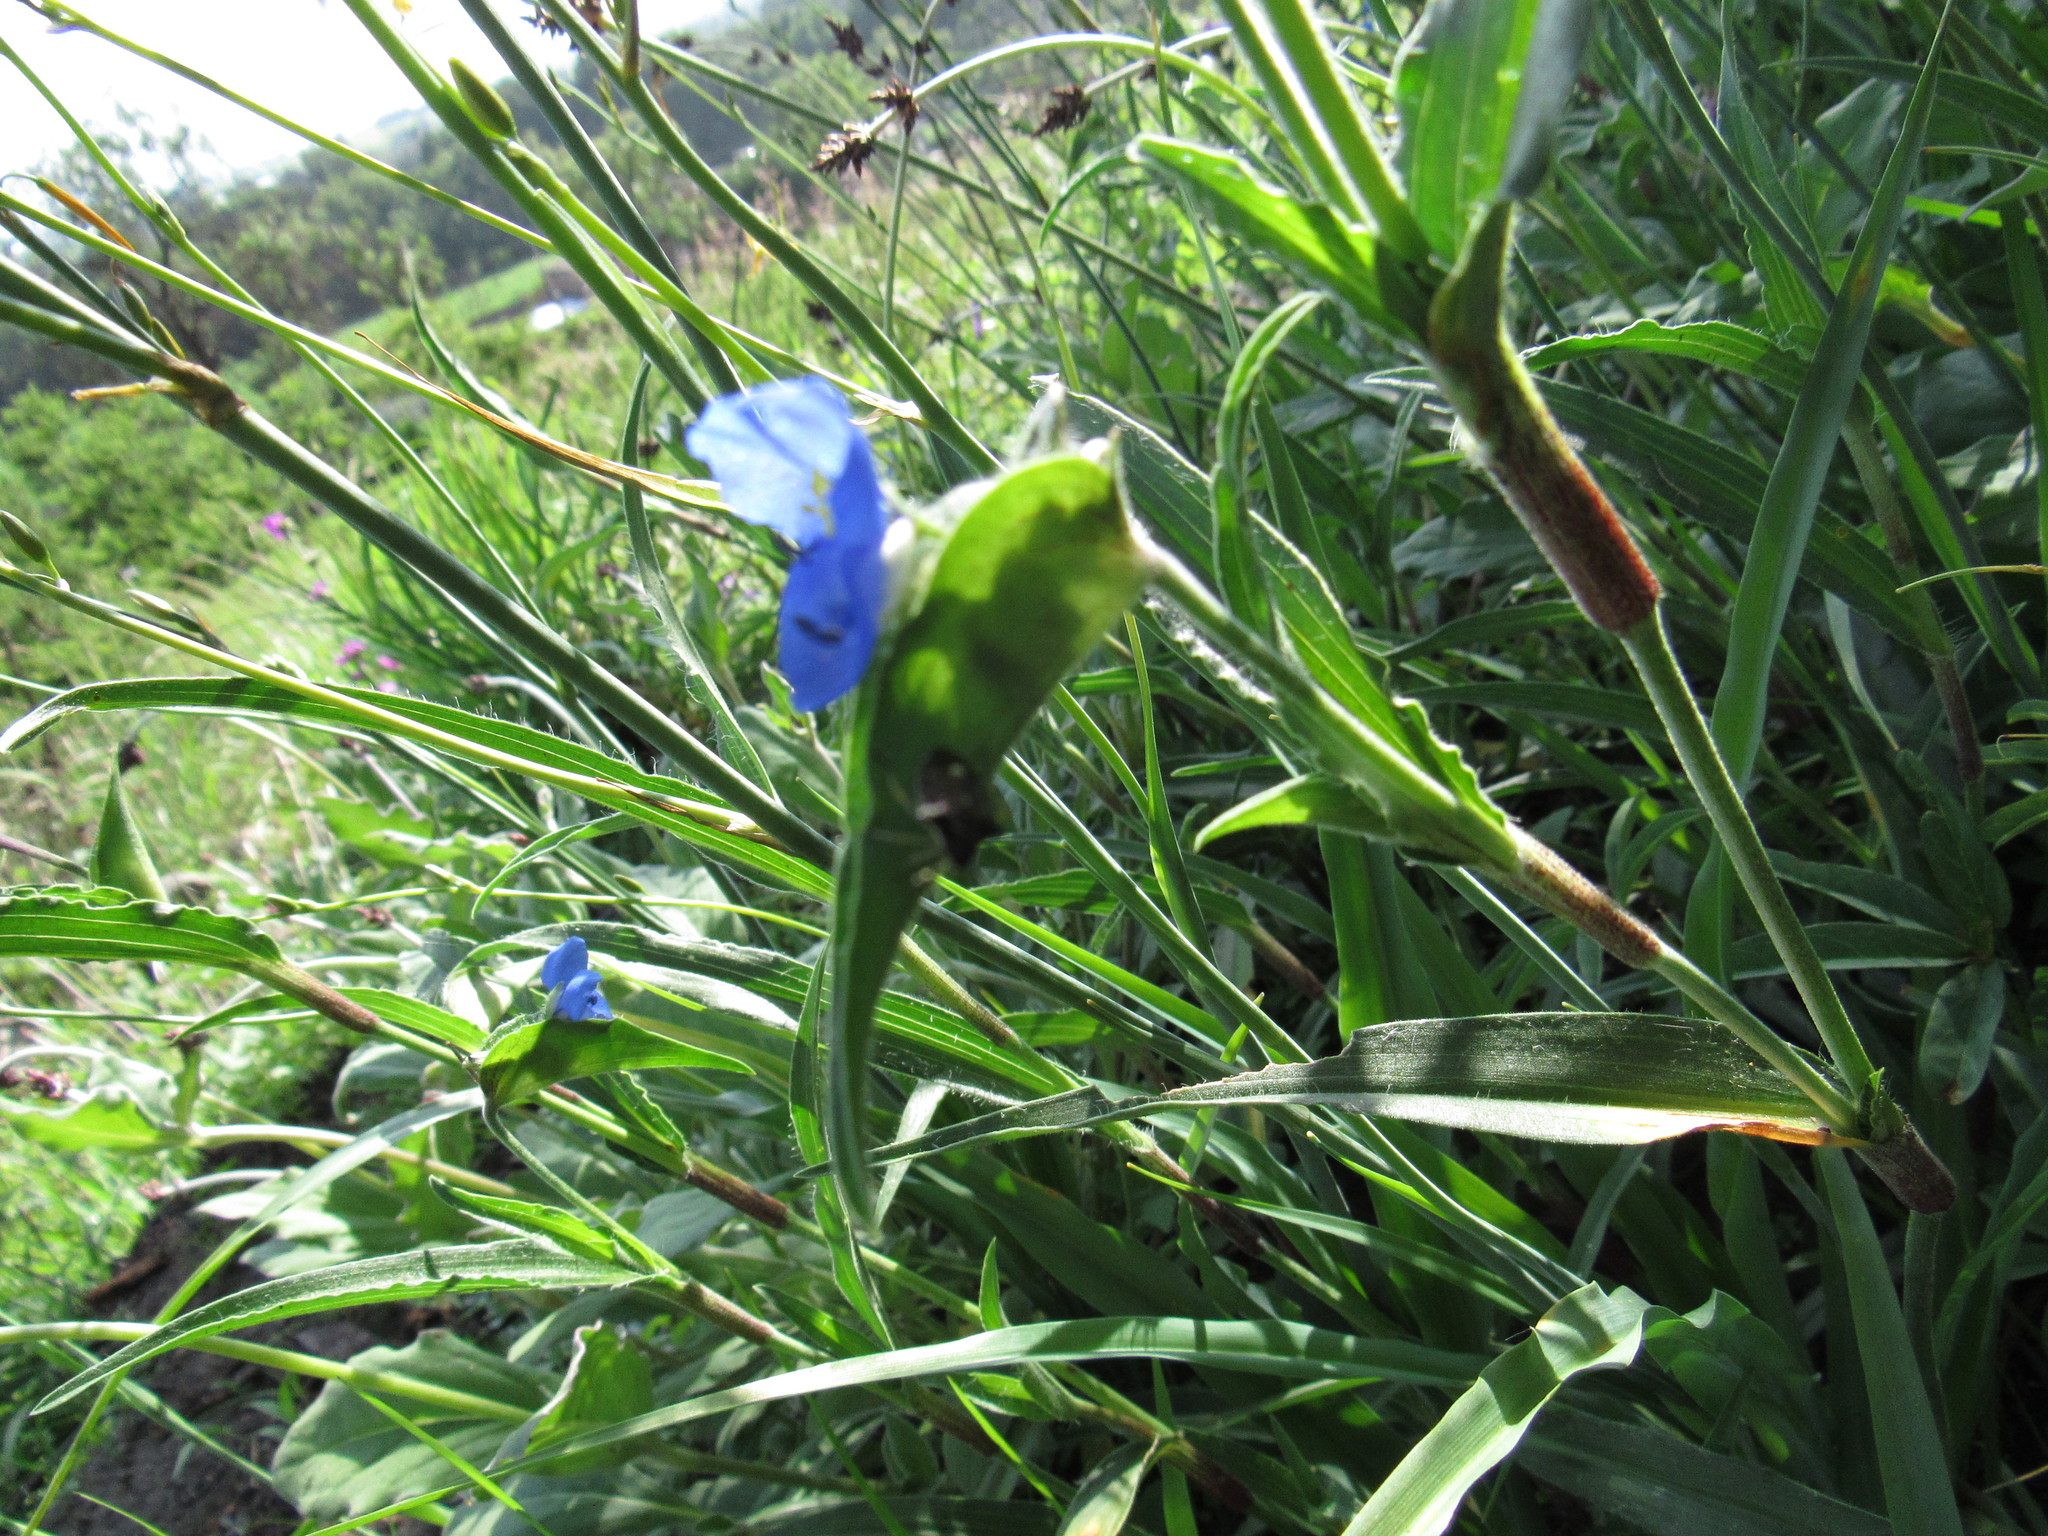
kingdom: Plantae
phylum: Tracheophyta
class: Liliopsida
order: Commelinales
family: Commelinaceae
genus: Commelina
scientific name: Commelina tuberosa
